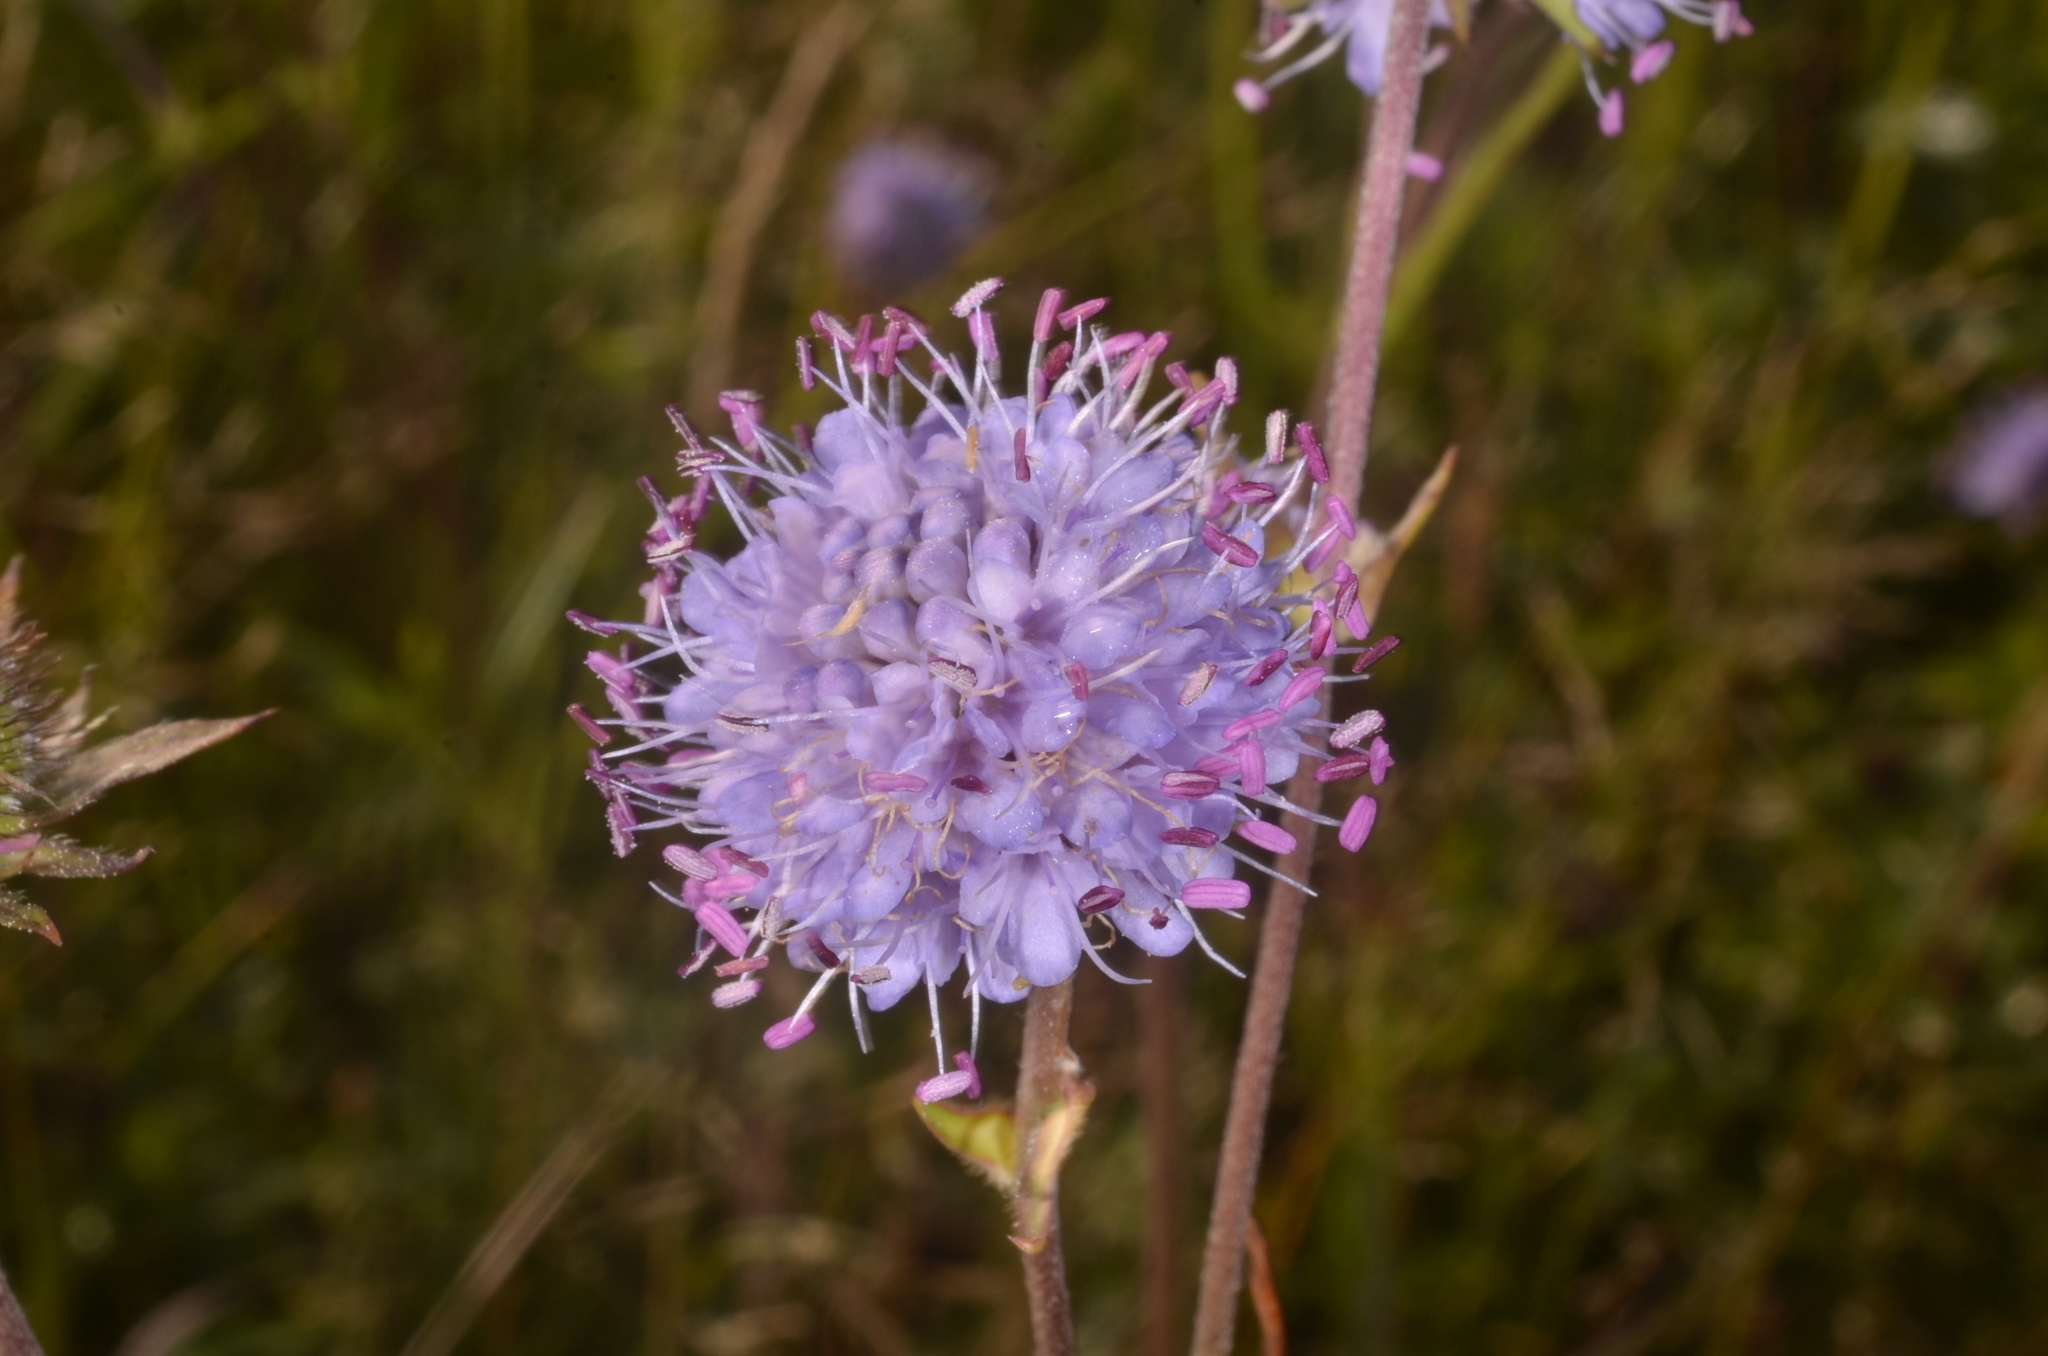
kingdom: Plantae
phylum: Tracheophyta
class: Magnoliopsida
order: Dipsacales
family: Caprifoliaceae
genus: Succisa
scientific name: Succisa pratensis
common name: Devil's-bit
